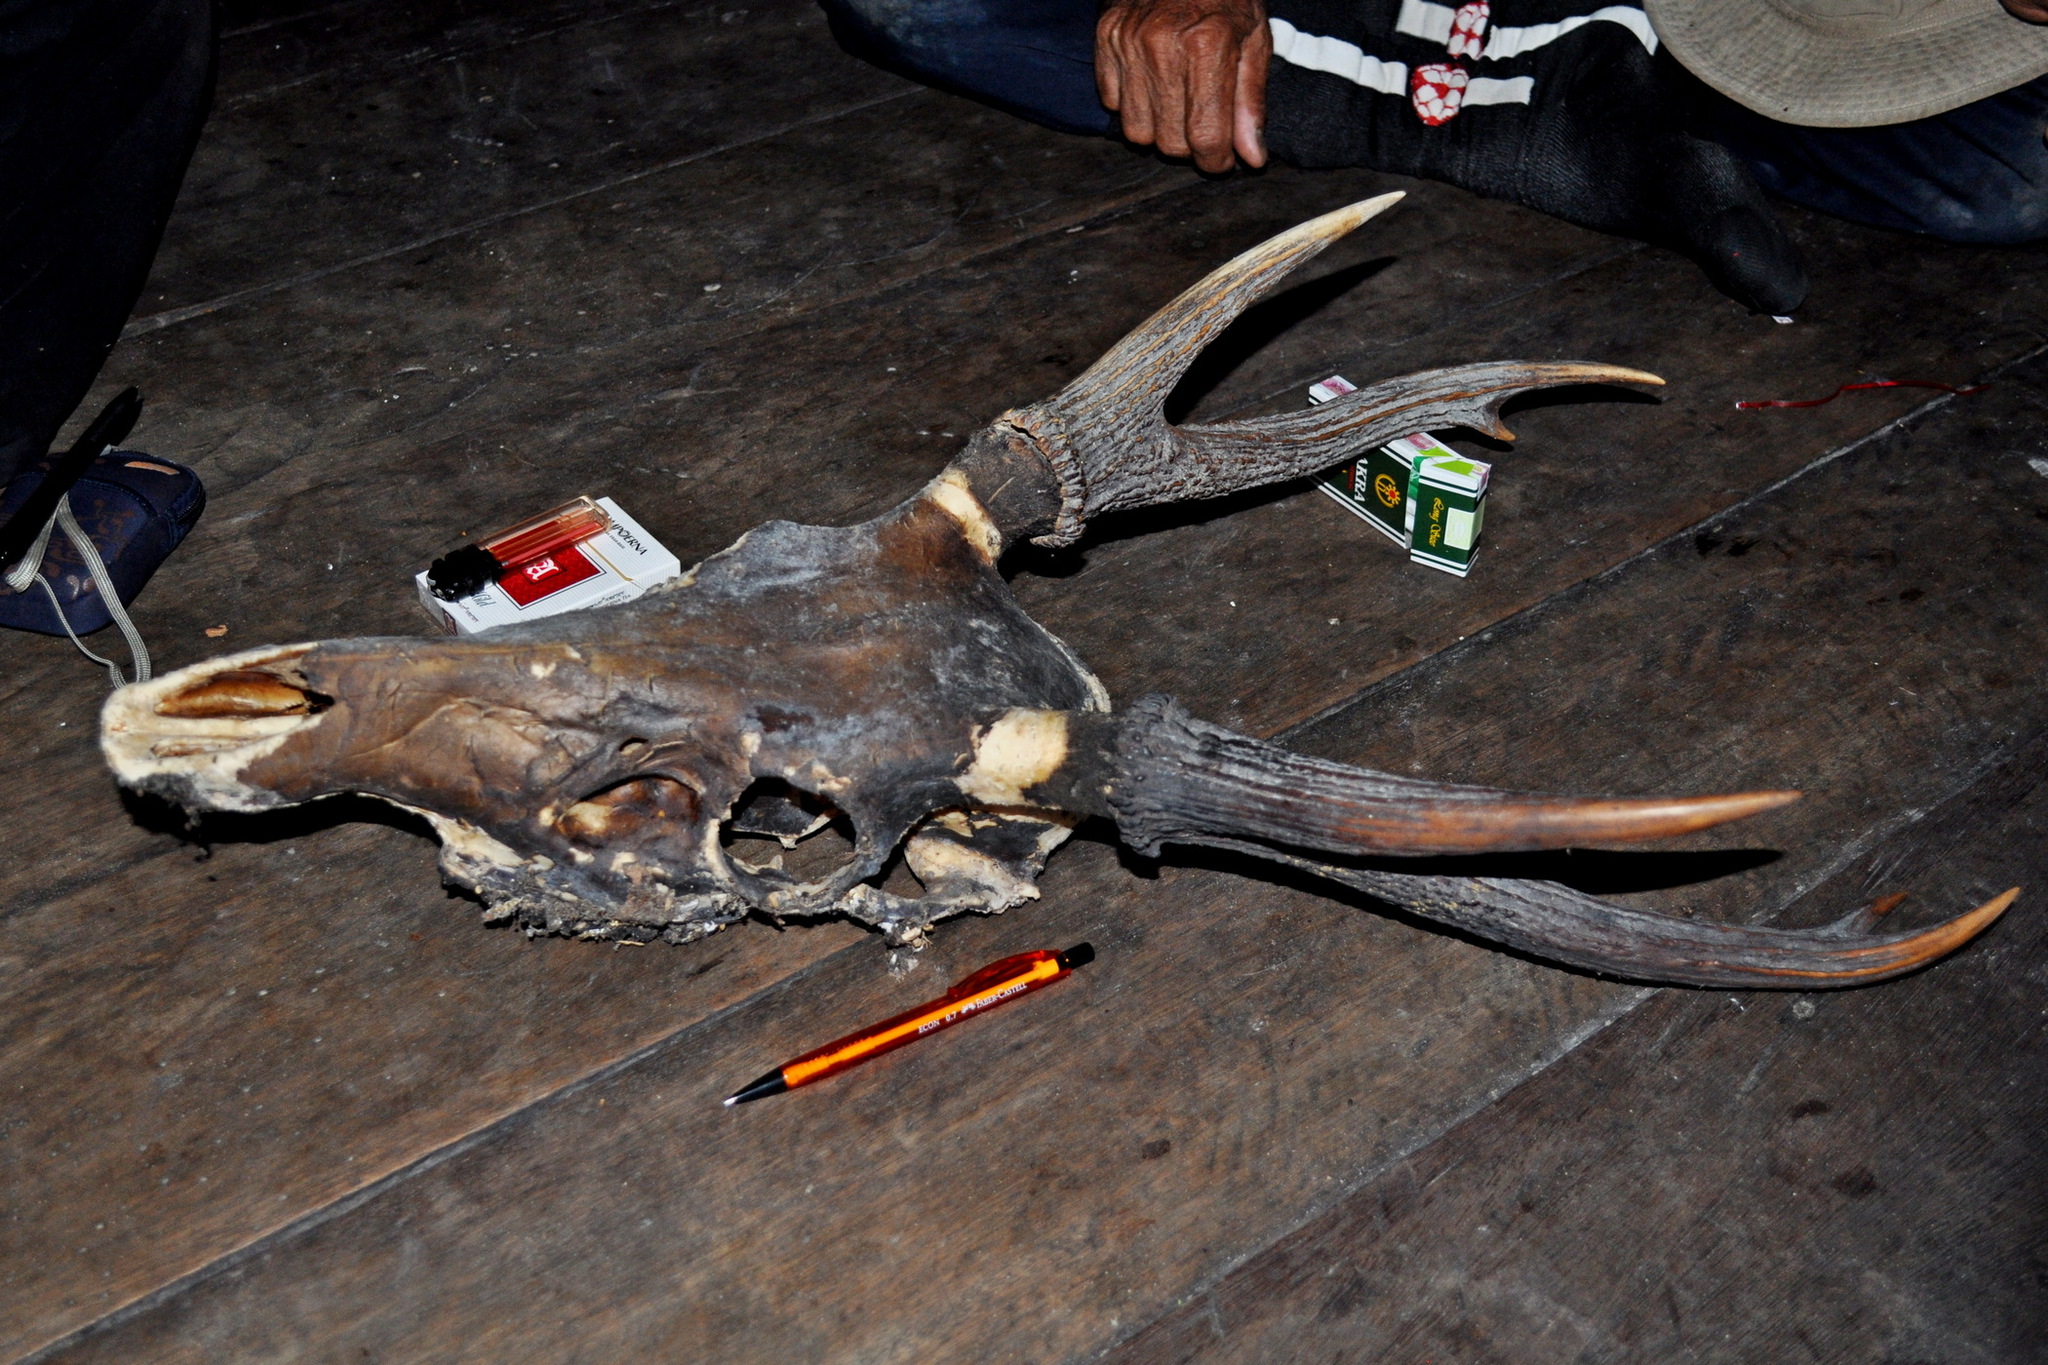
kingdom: Animalia
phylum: Chordata
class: Mammalia
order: Artiodactyla
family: Cervidae
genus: Rusa
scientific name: Rusa unicolor
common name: Sambar
